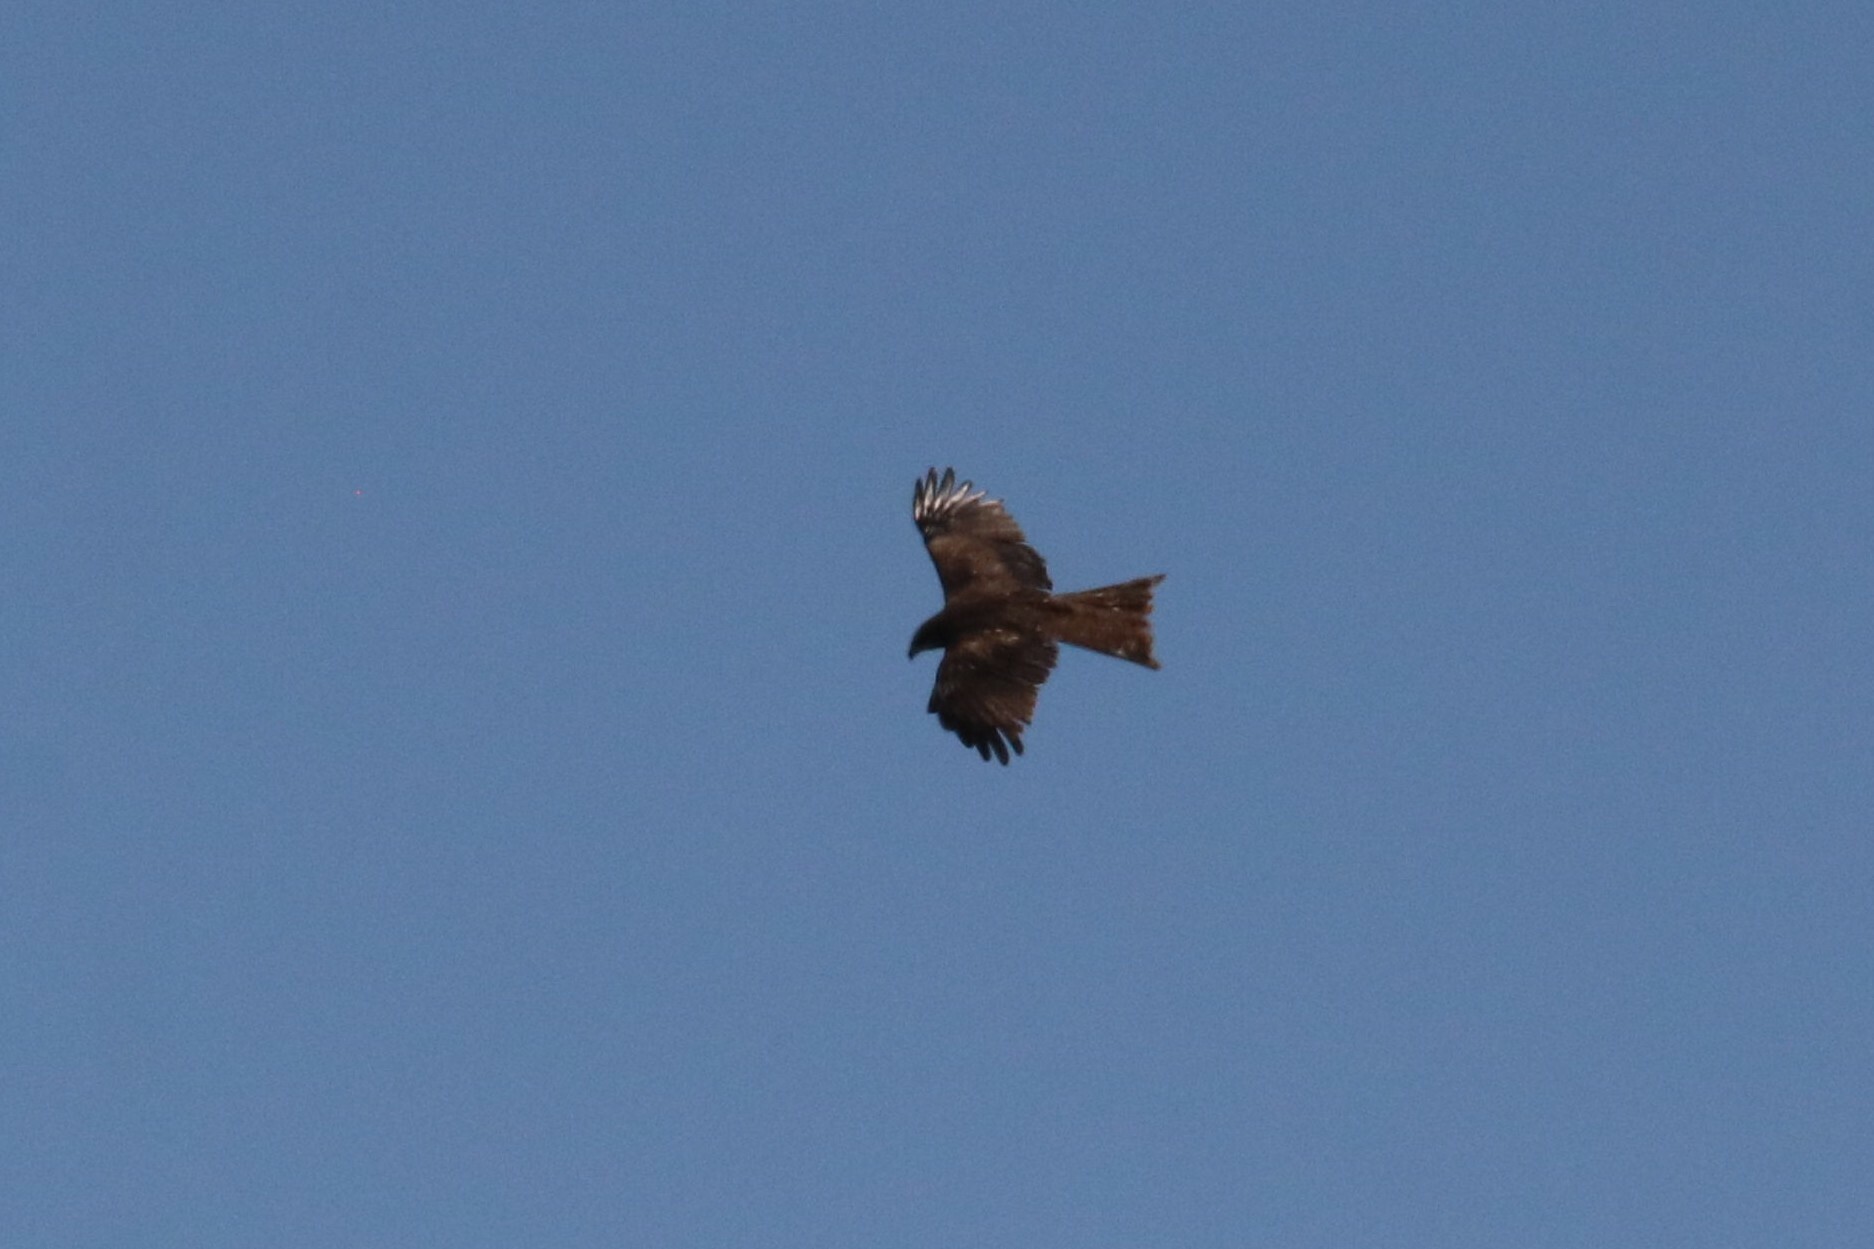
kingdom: Animalia
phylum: Chordata
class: Aves
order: Accipitriformes
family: Accipitridae
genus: Milvus
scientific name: Milvus migrans
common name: Black kite
